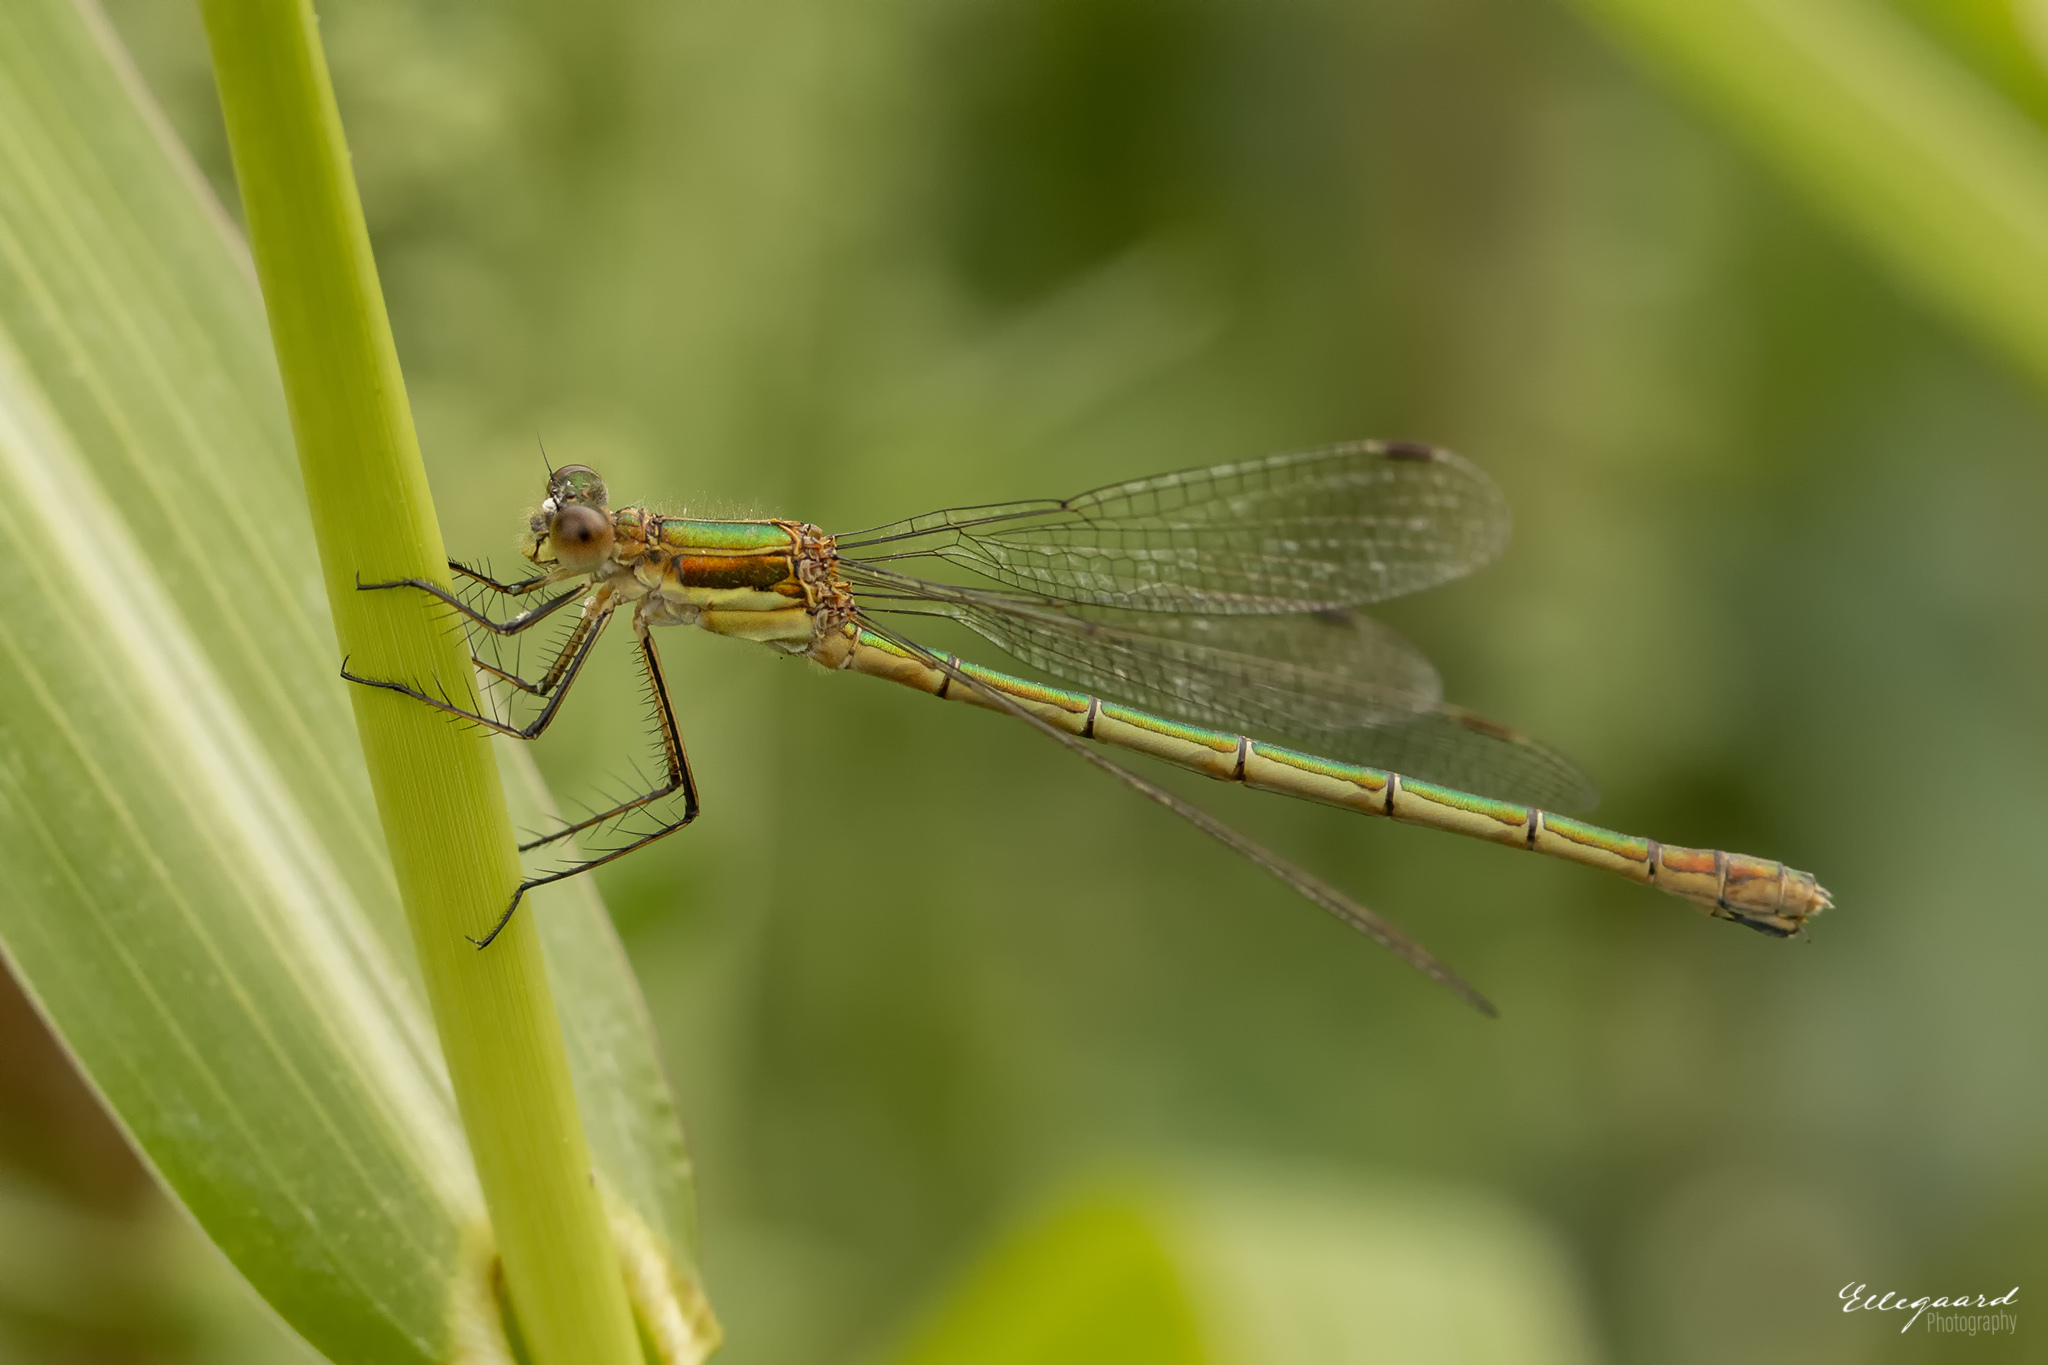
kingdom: Animalia
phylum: Arthropoda
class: Insecta
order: Odonata
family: Lestidae
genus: Lestes
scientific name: Lestes sponsa
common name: Common spreadwing
